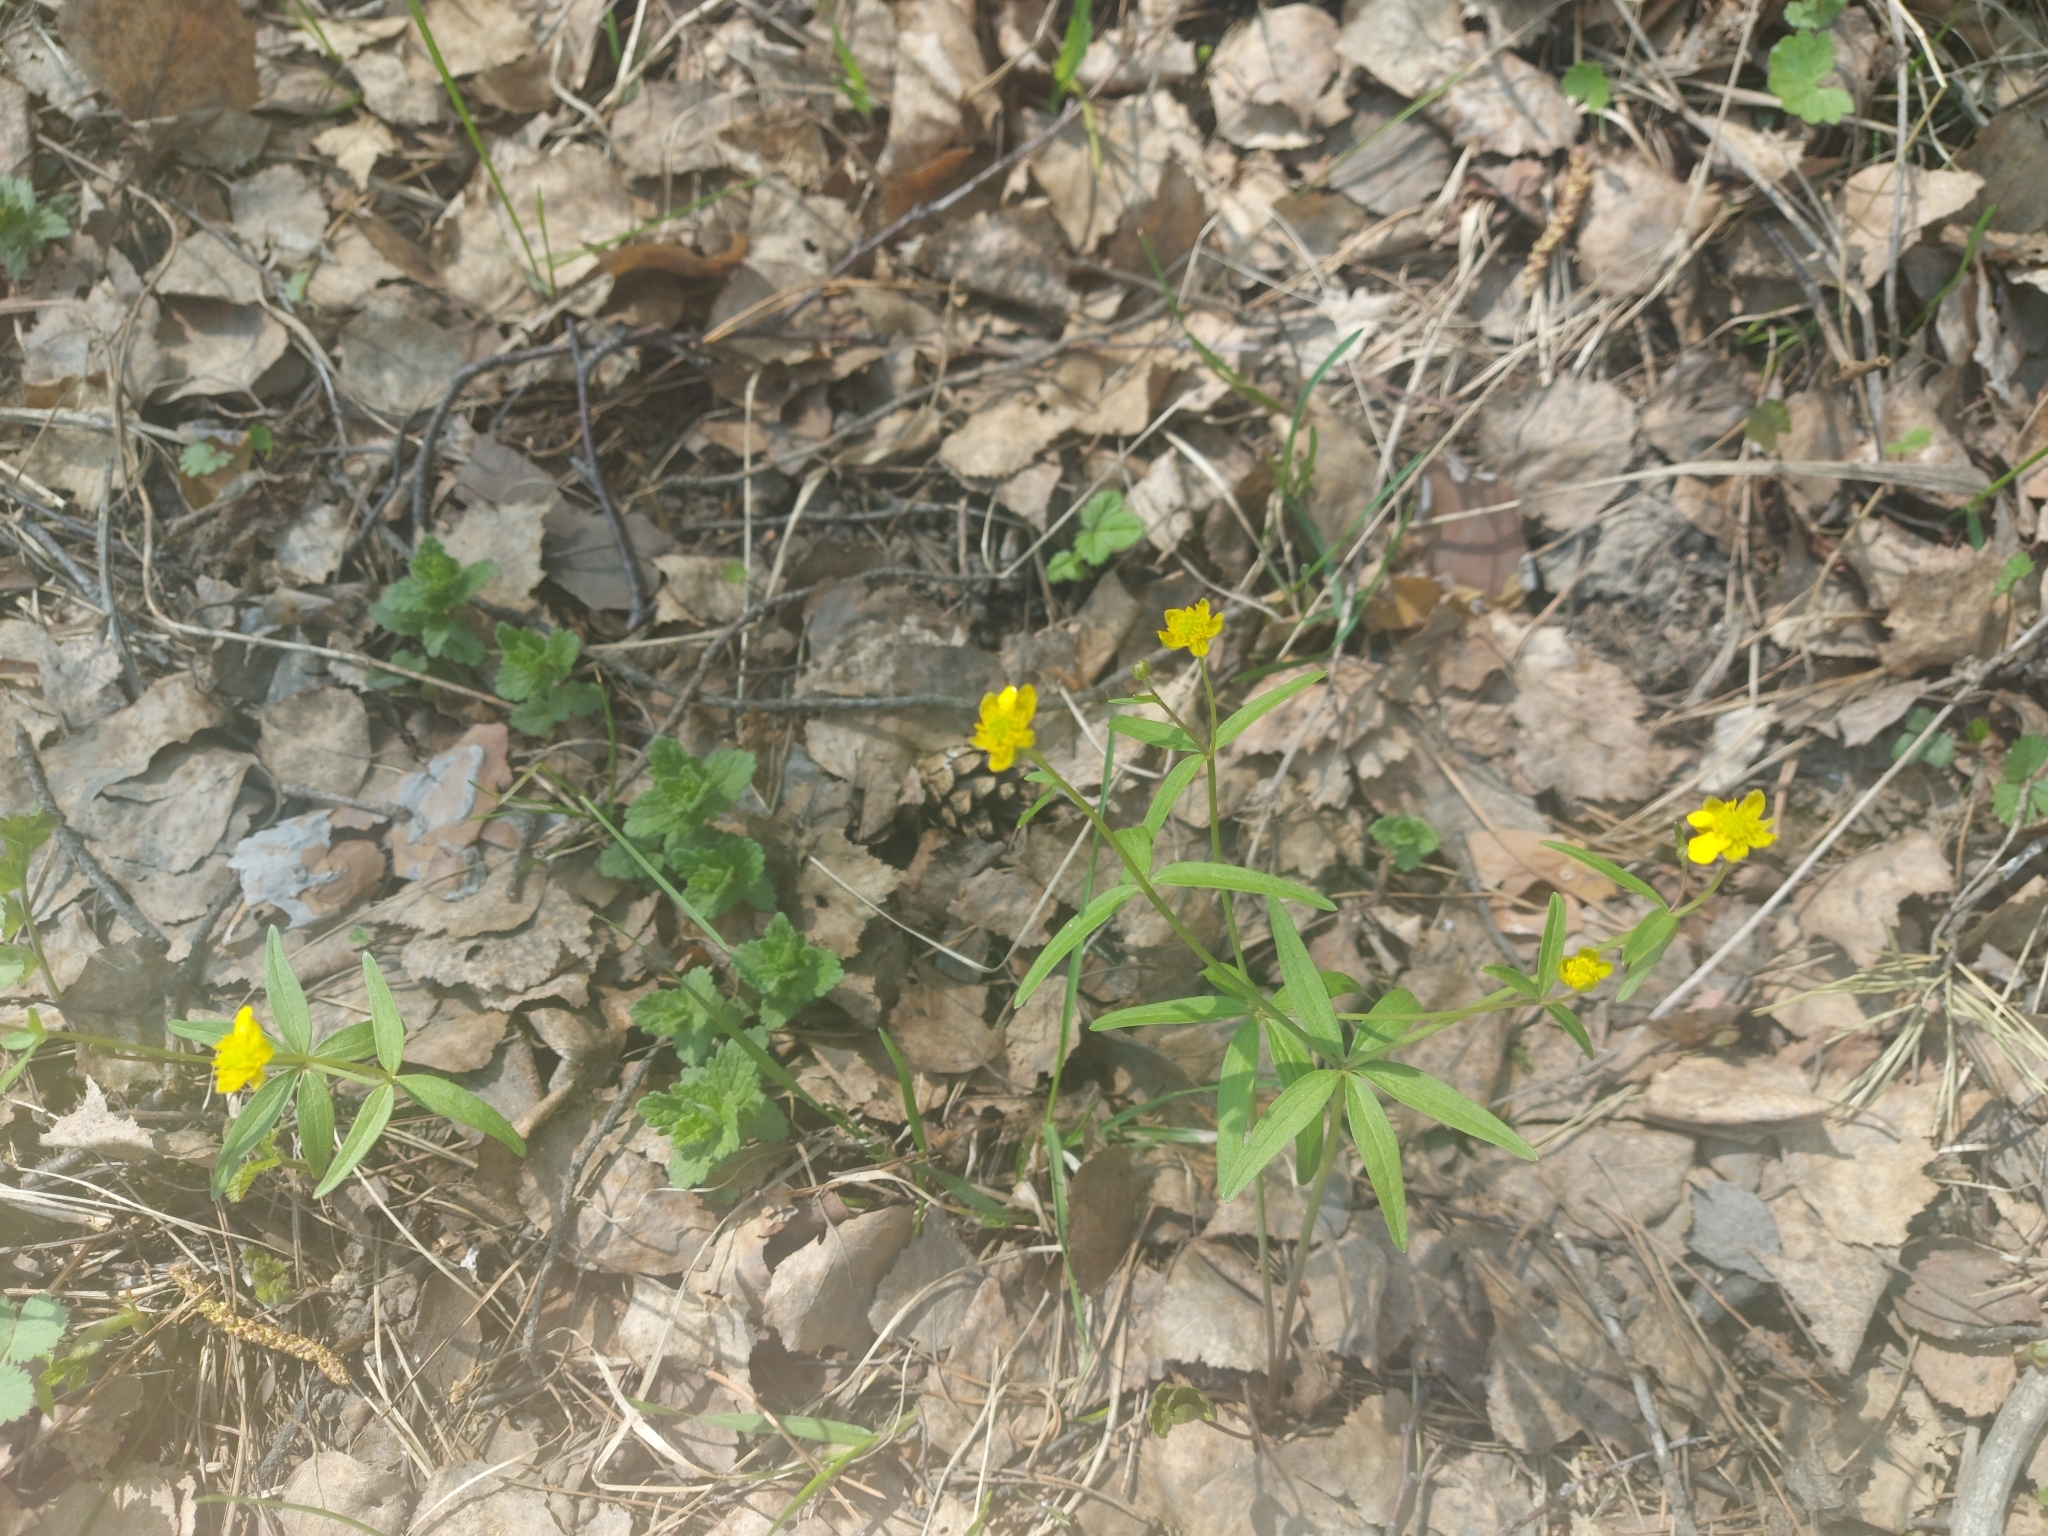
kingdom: Plantae
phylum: Tracheophyta
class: Magnoliopsida
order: Ranunculales
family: Ranunculaceae
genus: Ranunculus
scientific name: Ranunculus monophyllus
